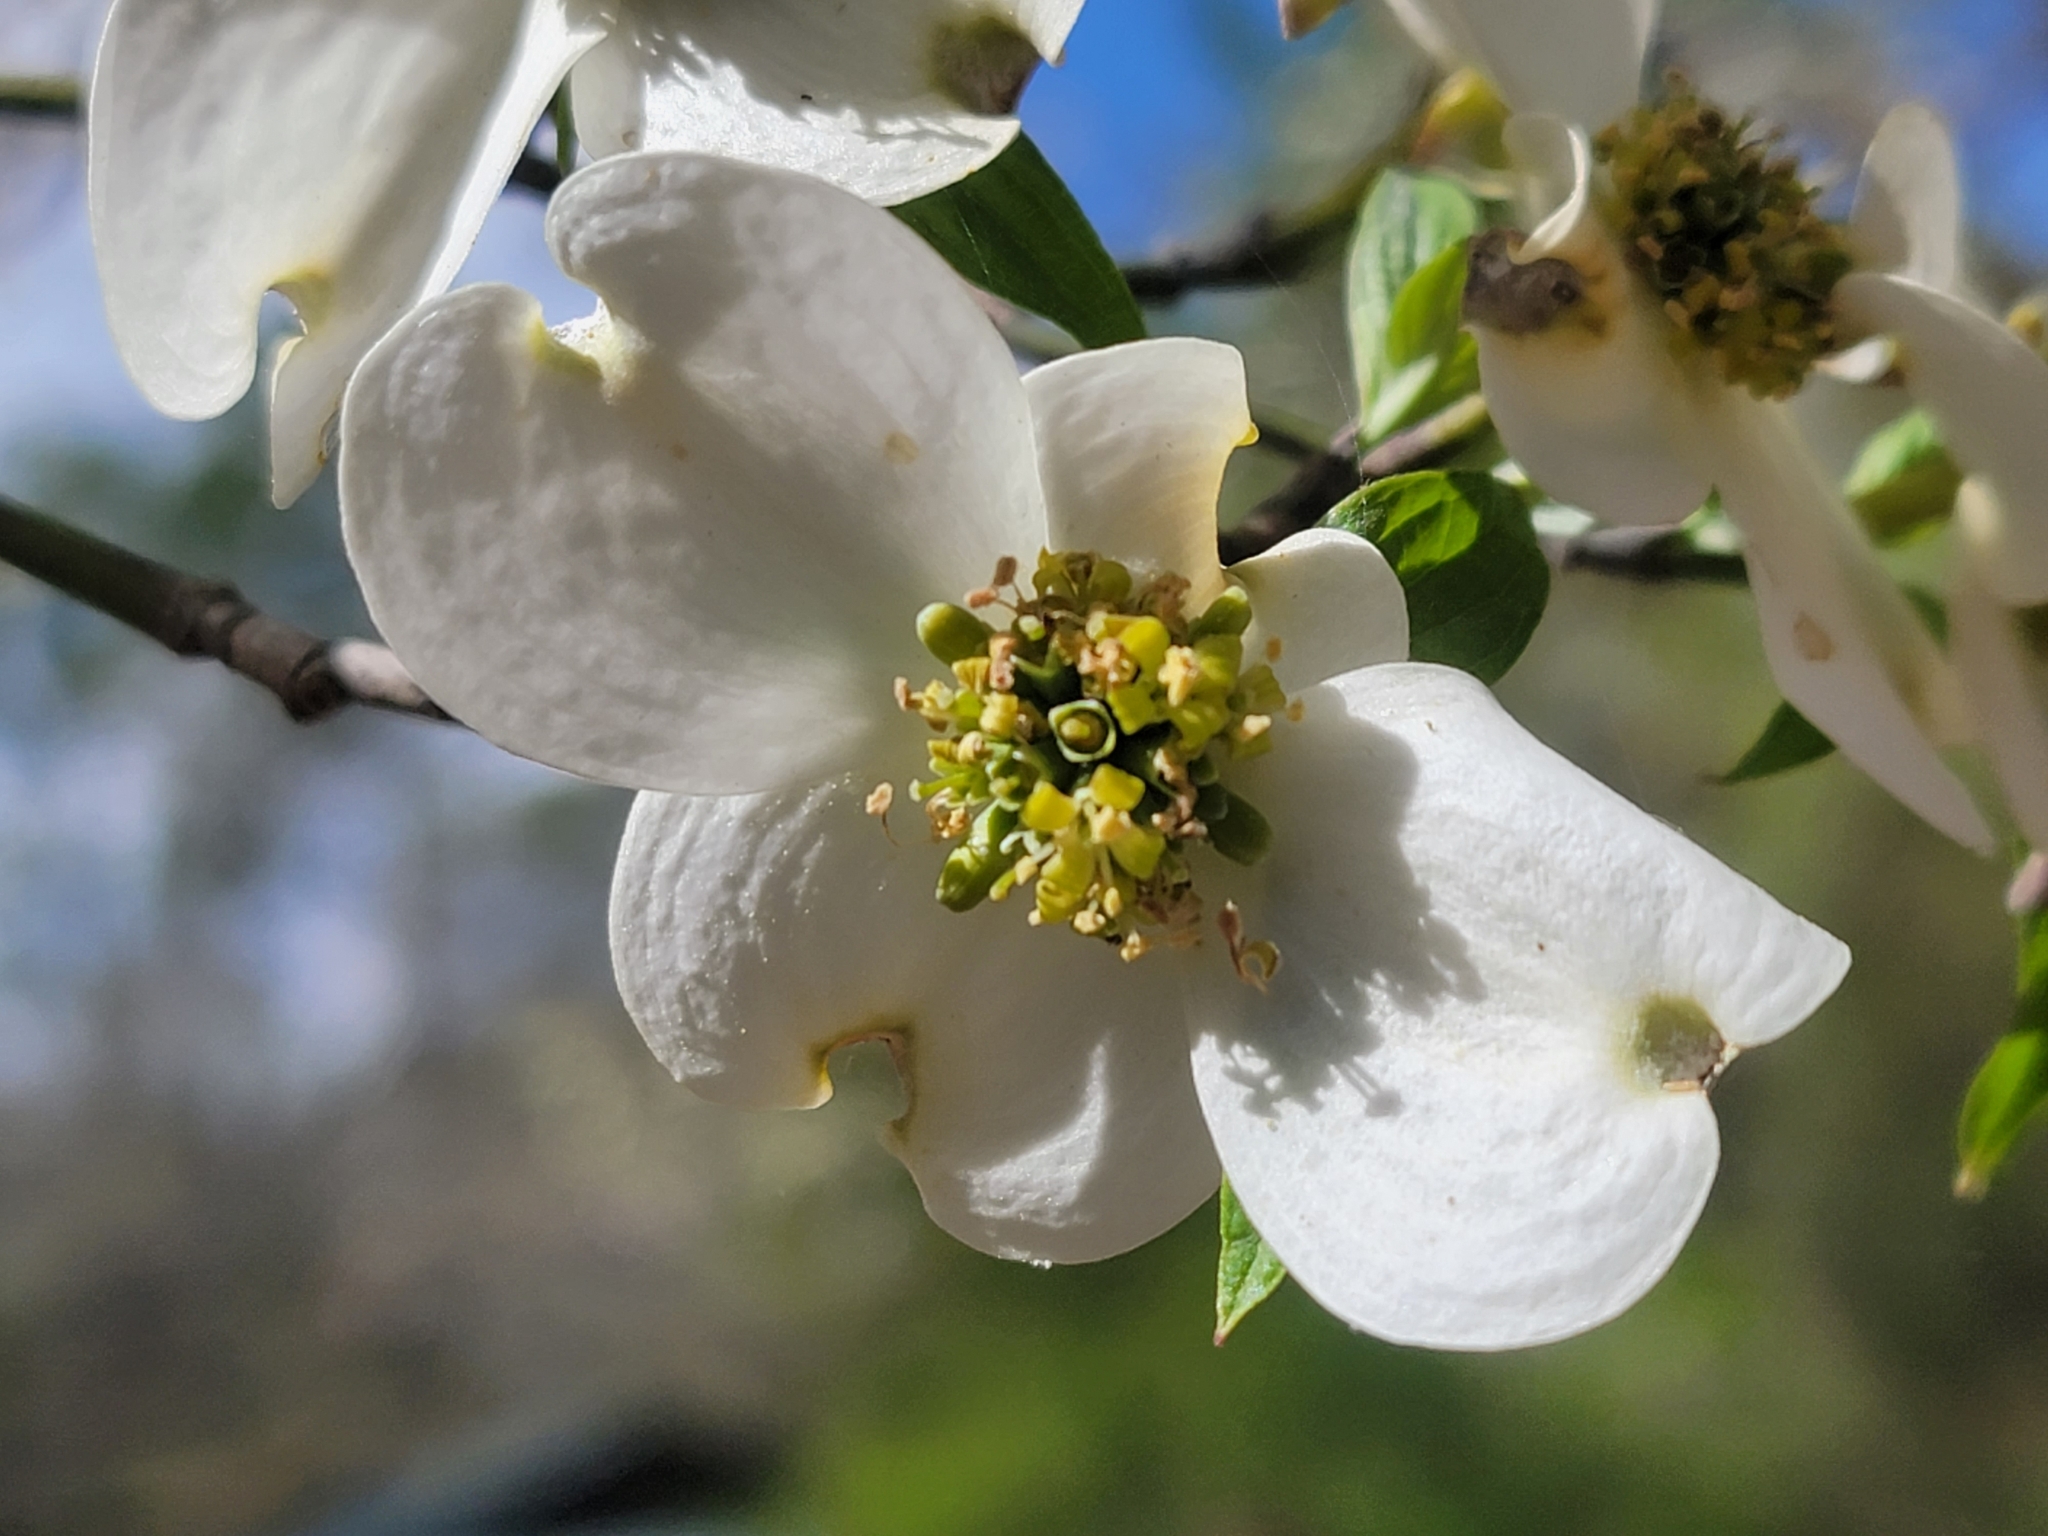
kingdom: Plantae
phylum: Tracheophyta
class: Magnoliopsida
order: Cornales
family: Cornaceae
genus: Cornus
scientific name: Cornus florida
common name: Flowering dogwood
